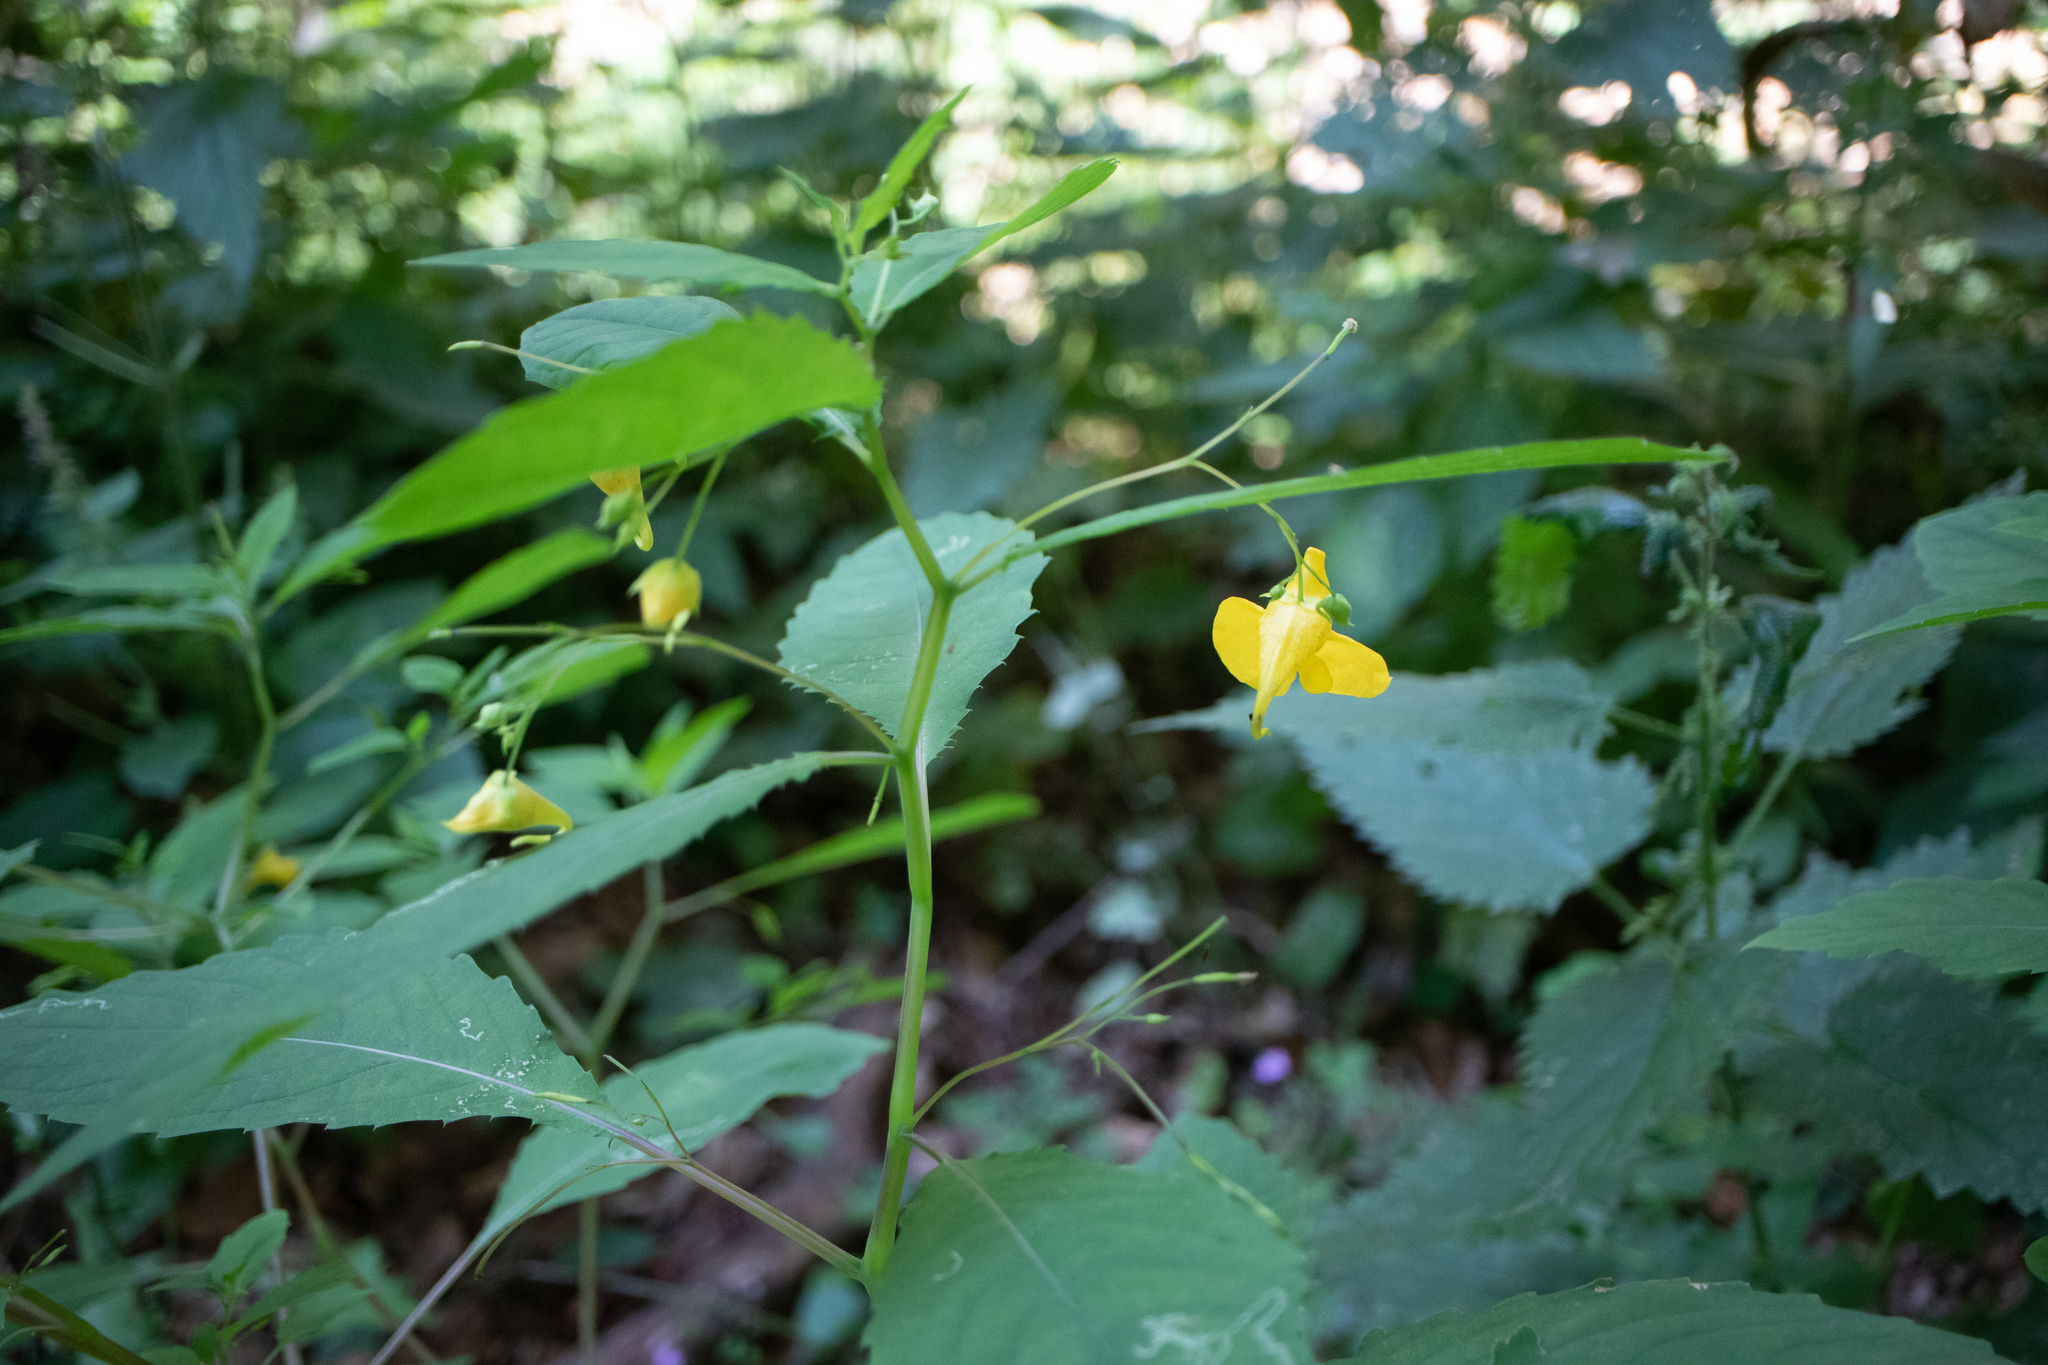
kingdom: Plantae
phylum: Tracheophyta
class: Magnoliopsida
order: Ericales
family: Balsaminaceae
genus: Impatiens
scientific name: Impatiens noli-tangere
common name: Touch-me-not balsam
